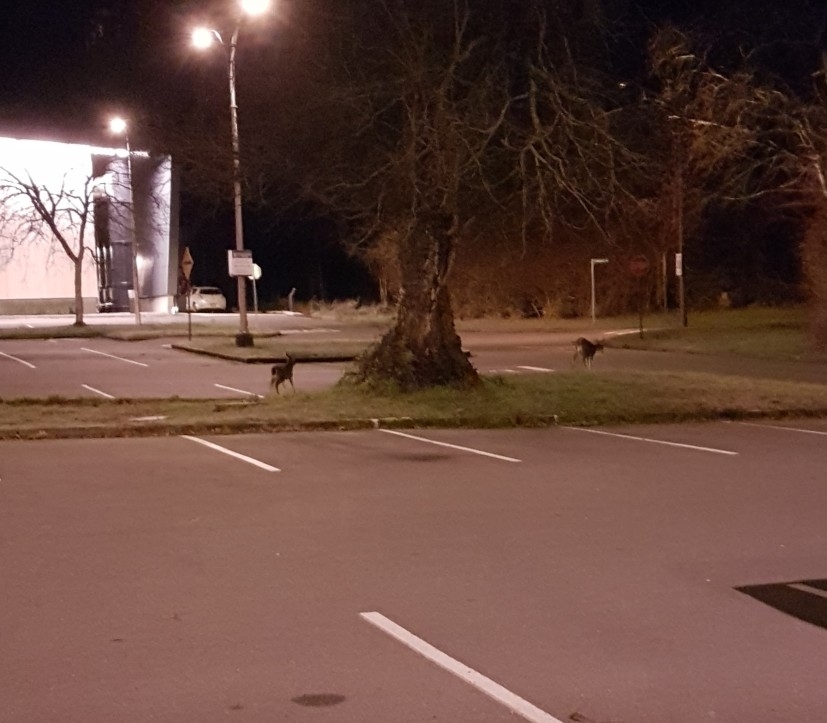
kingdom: Animalia
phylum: Chordata
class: Mammalia
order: Artiodactyla
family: Cervidae
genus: Odocoileus
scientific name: Odocoileus hemionus
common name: Mule deer
